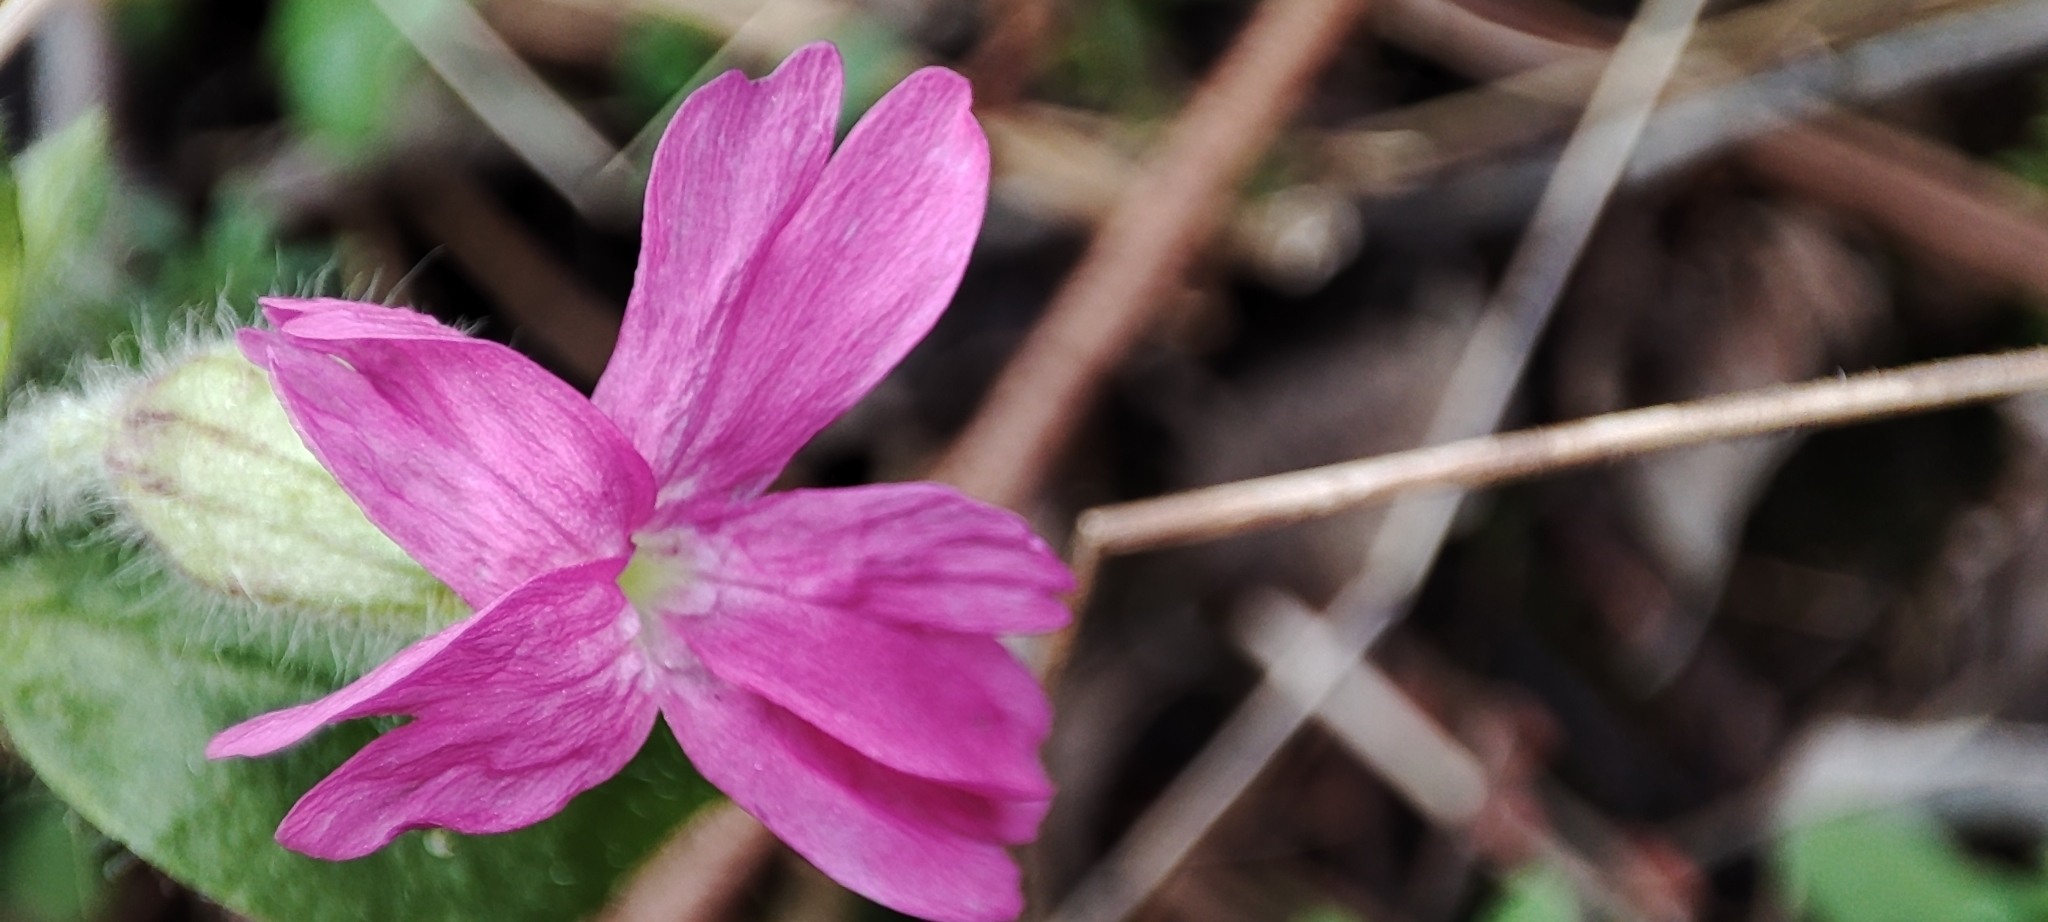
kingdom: Plantae
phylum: Tracheophyta
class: Magnoliopsida
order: Caryophyllales
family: Caryophyllaceae
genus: Silene
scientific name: Silene dioica
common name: Red campion
